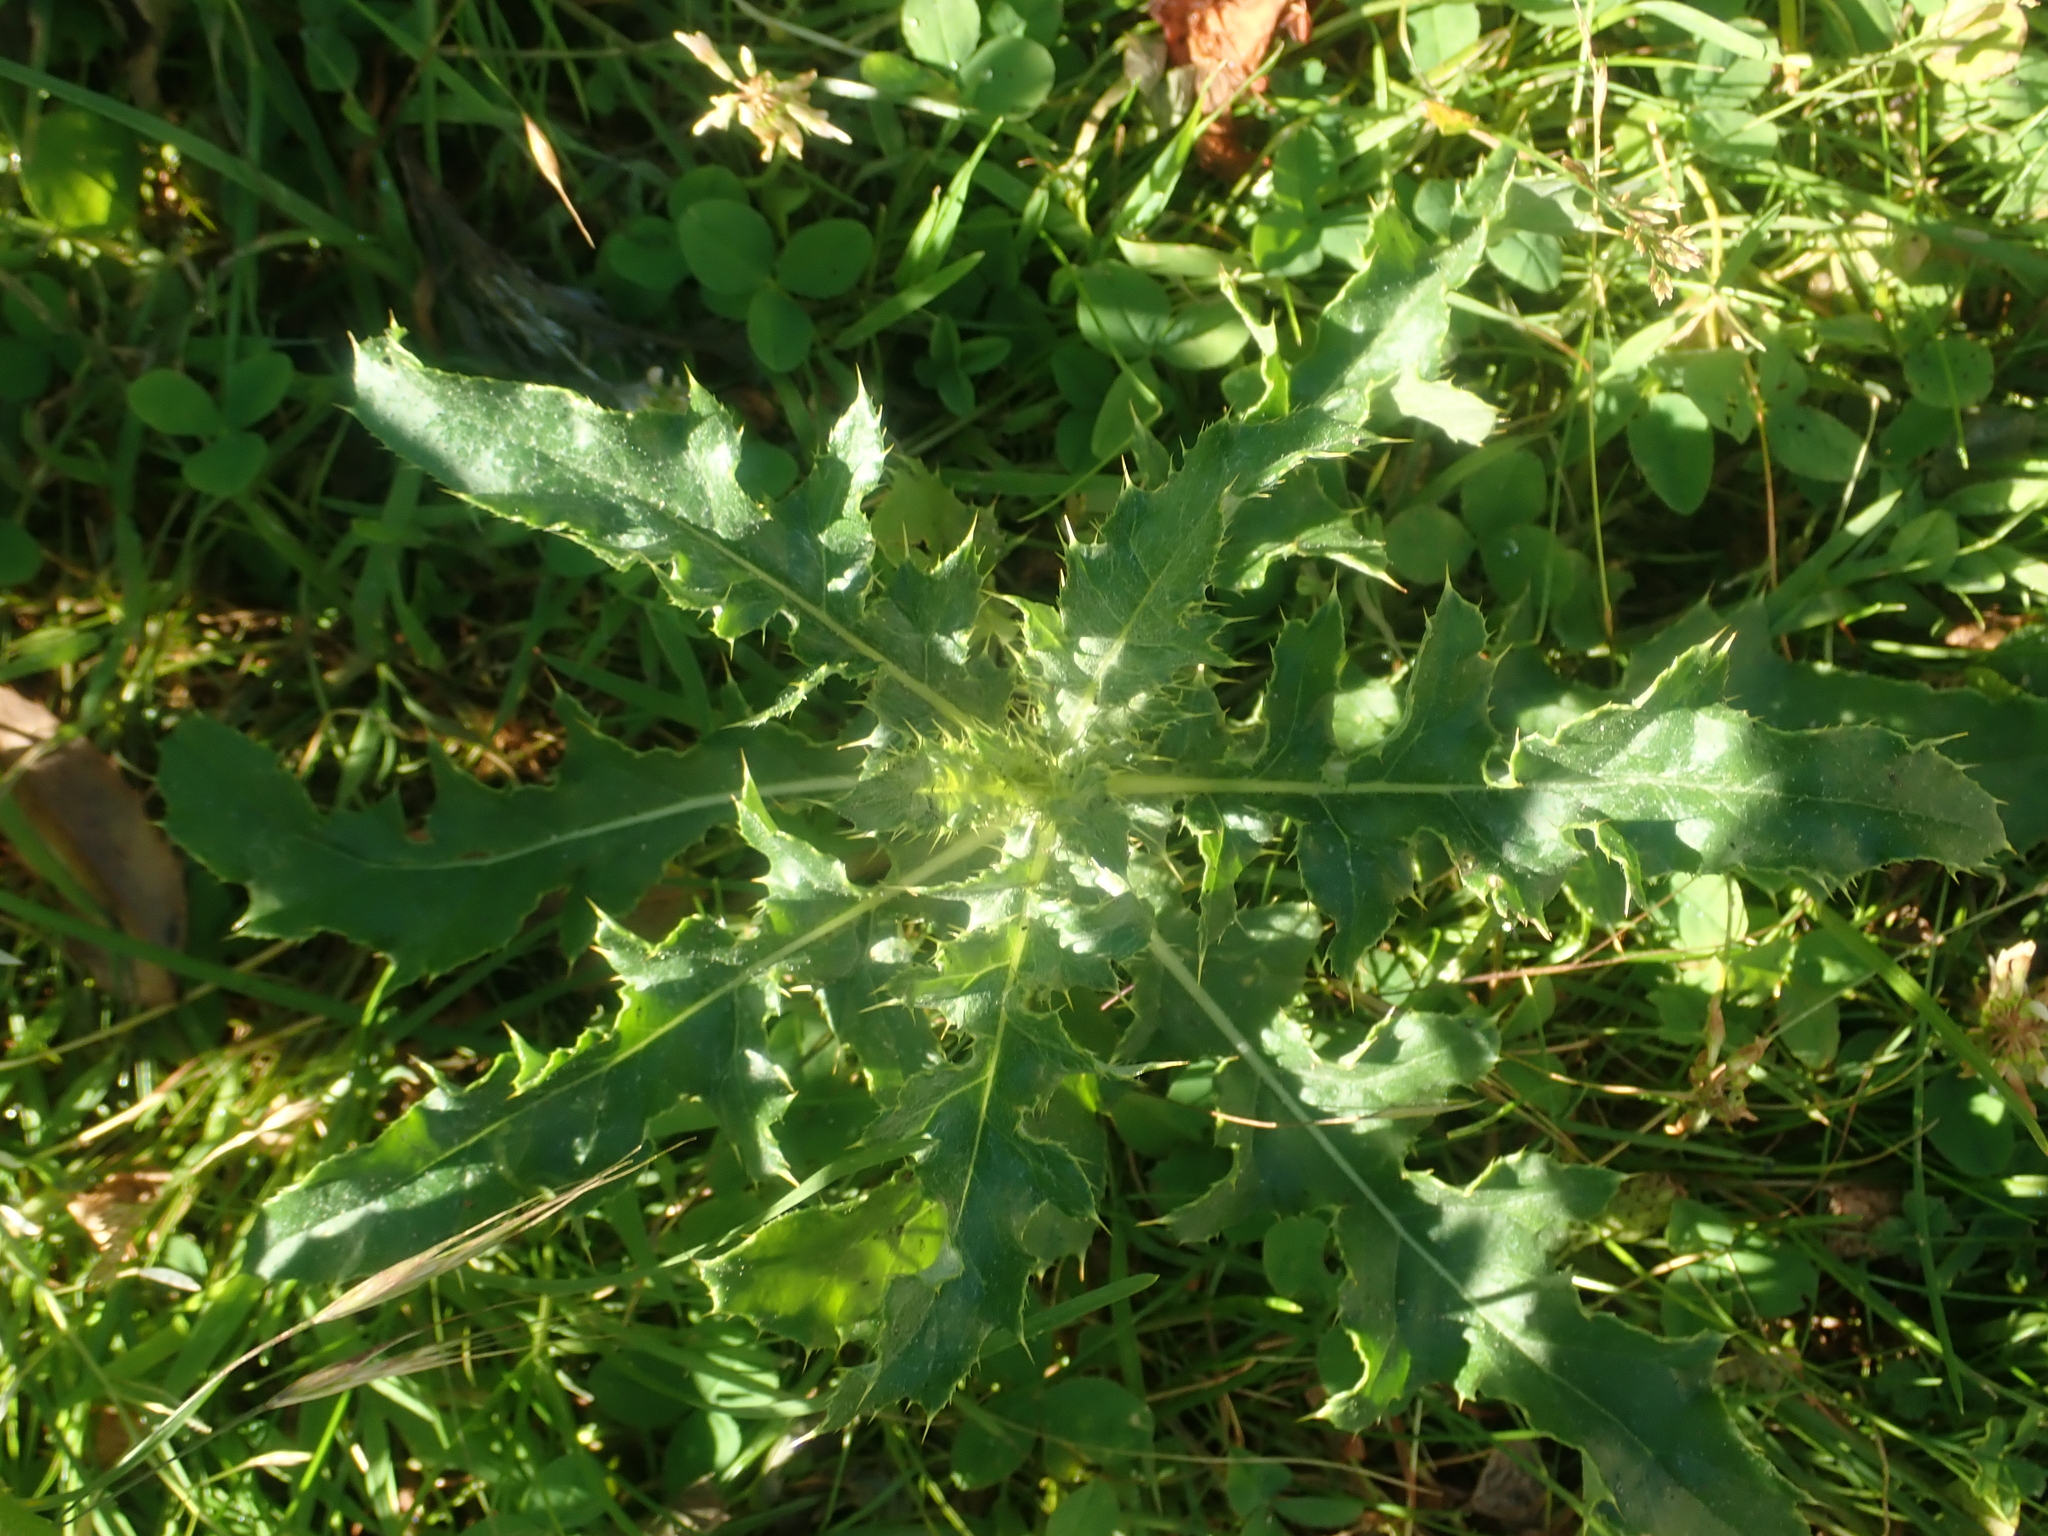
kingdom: Plantae
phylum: Tracheophyta
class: Magnoliopsida
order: Asterales
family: Asteraceae
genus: Cirsium
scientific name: Cirsium arvense
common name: Creeping thistle
